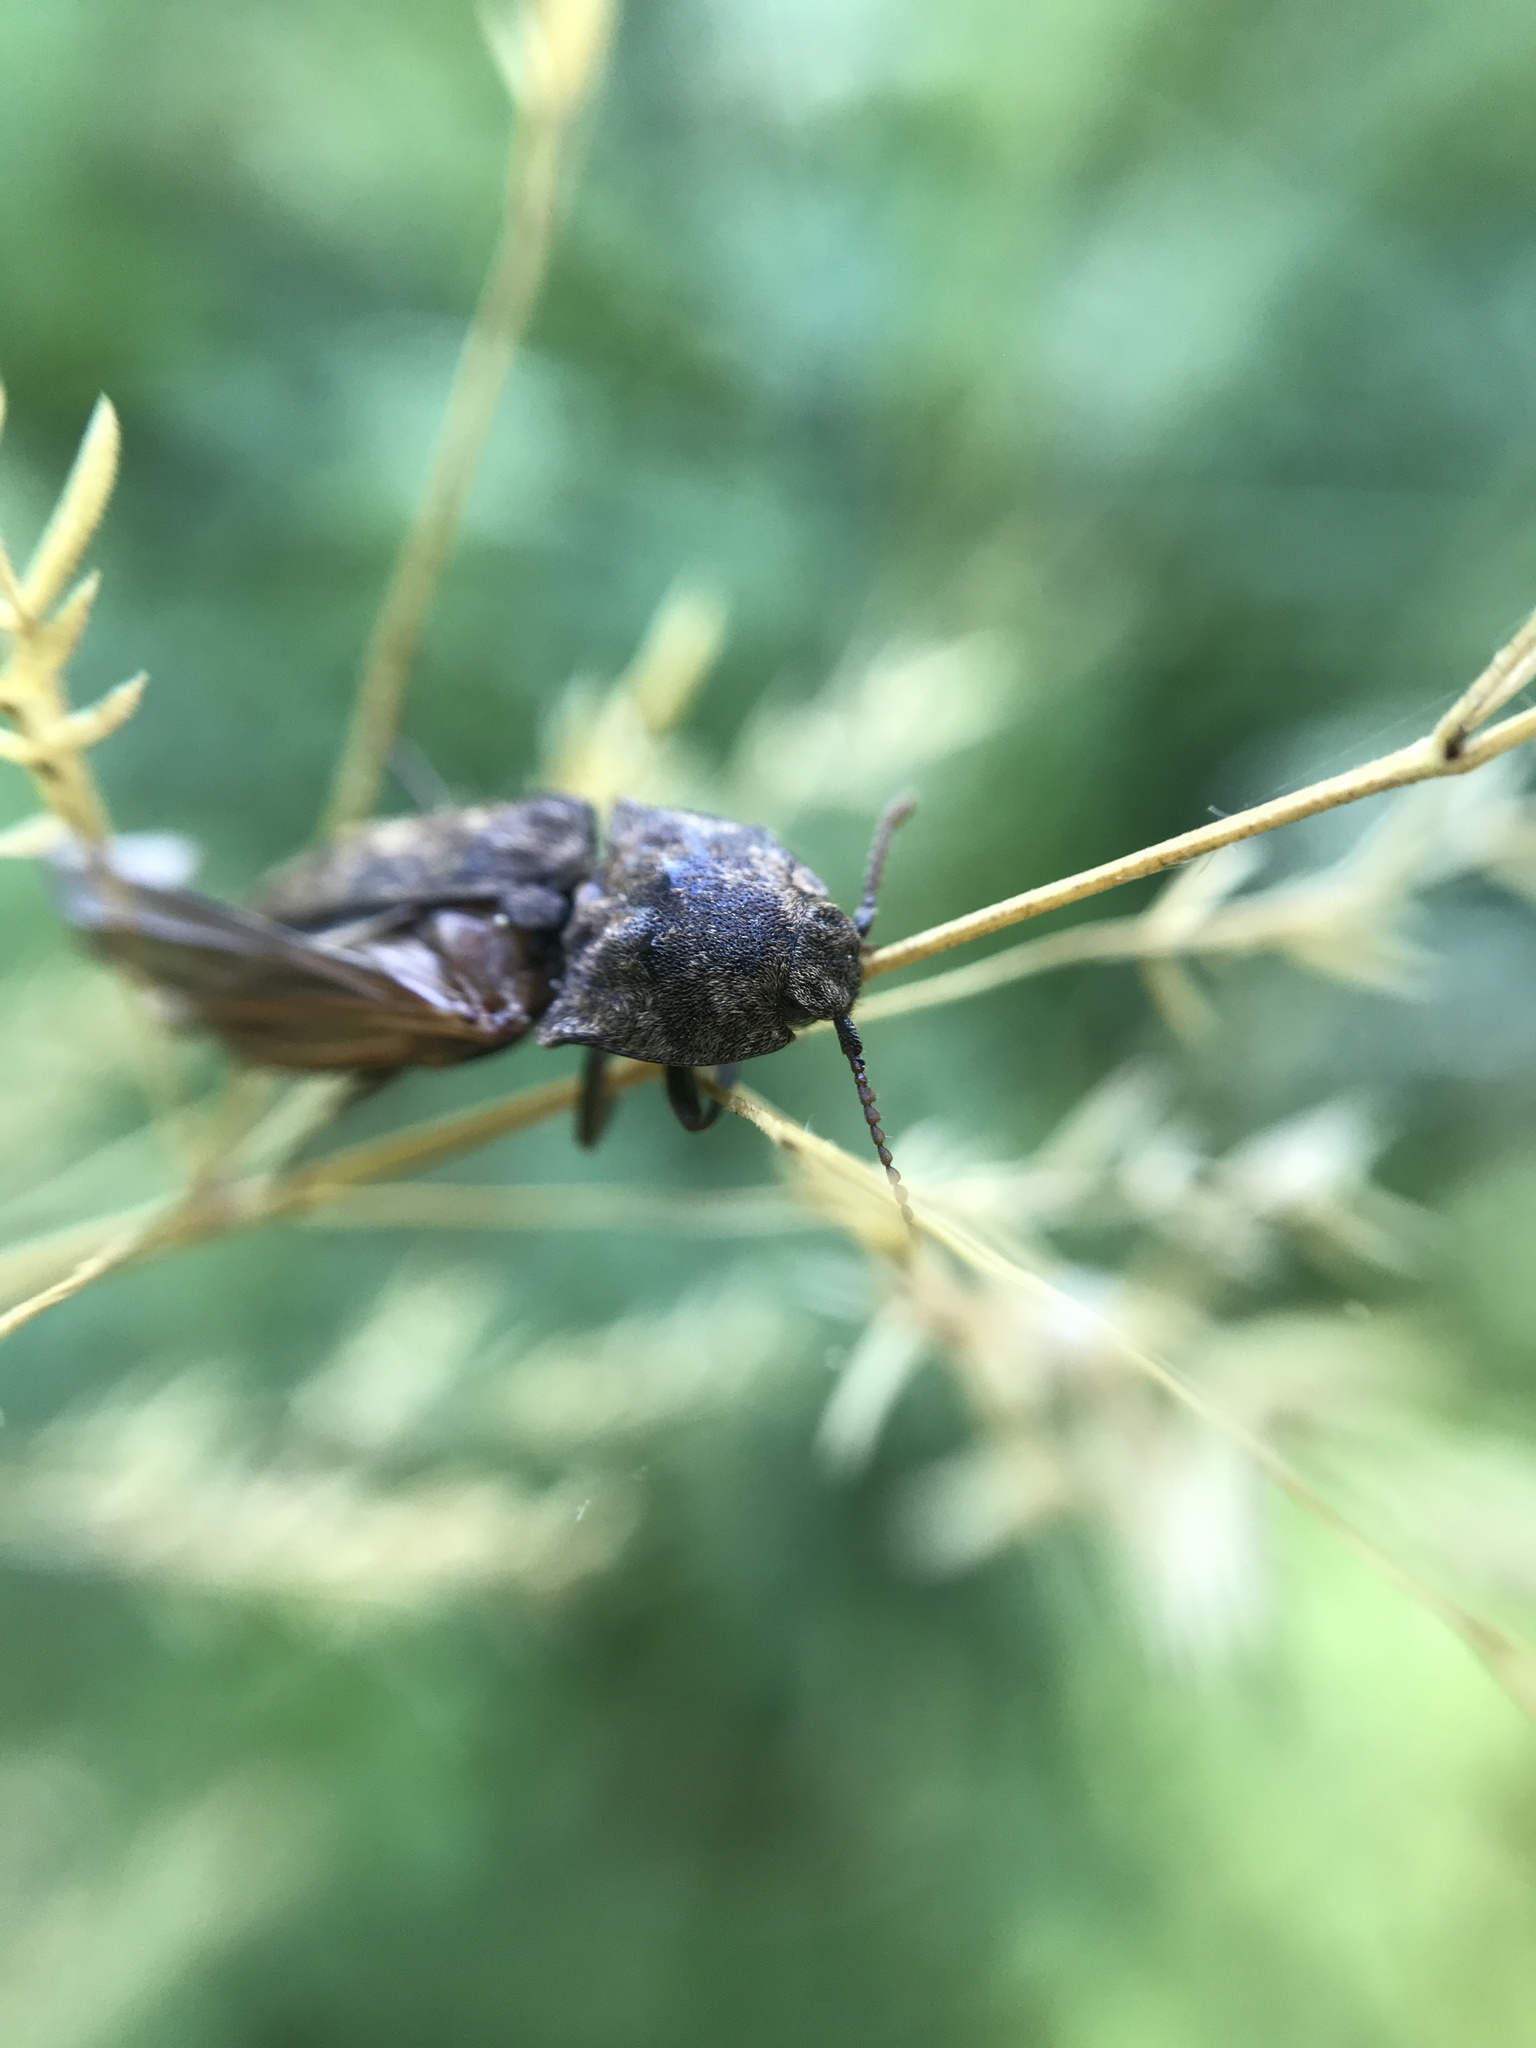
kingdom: Animalia
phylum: Arthropoda
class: Insecta
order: Coleoptera
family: Elateridae
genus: Agrypnus
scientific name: Agrypnus murinus
